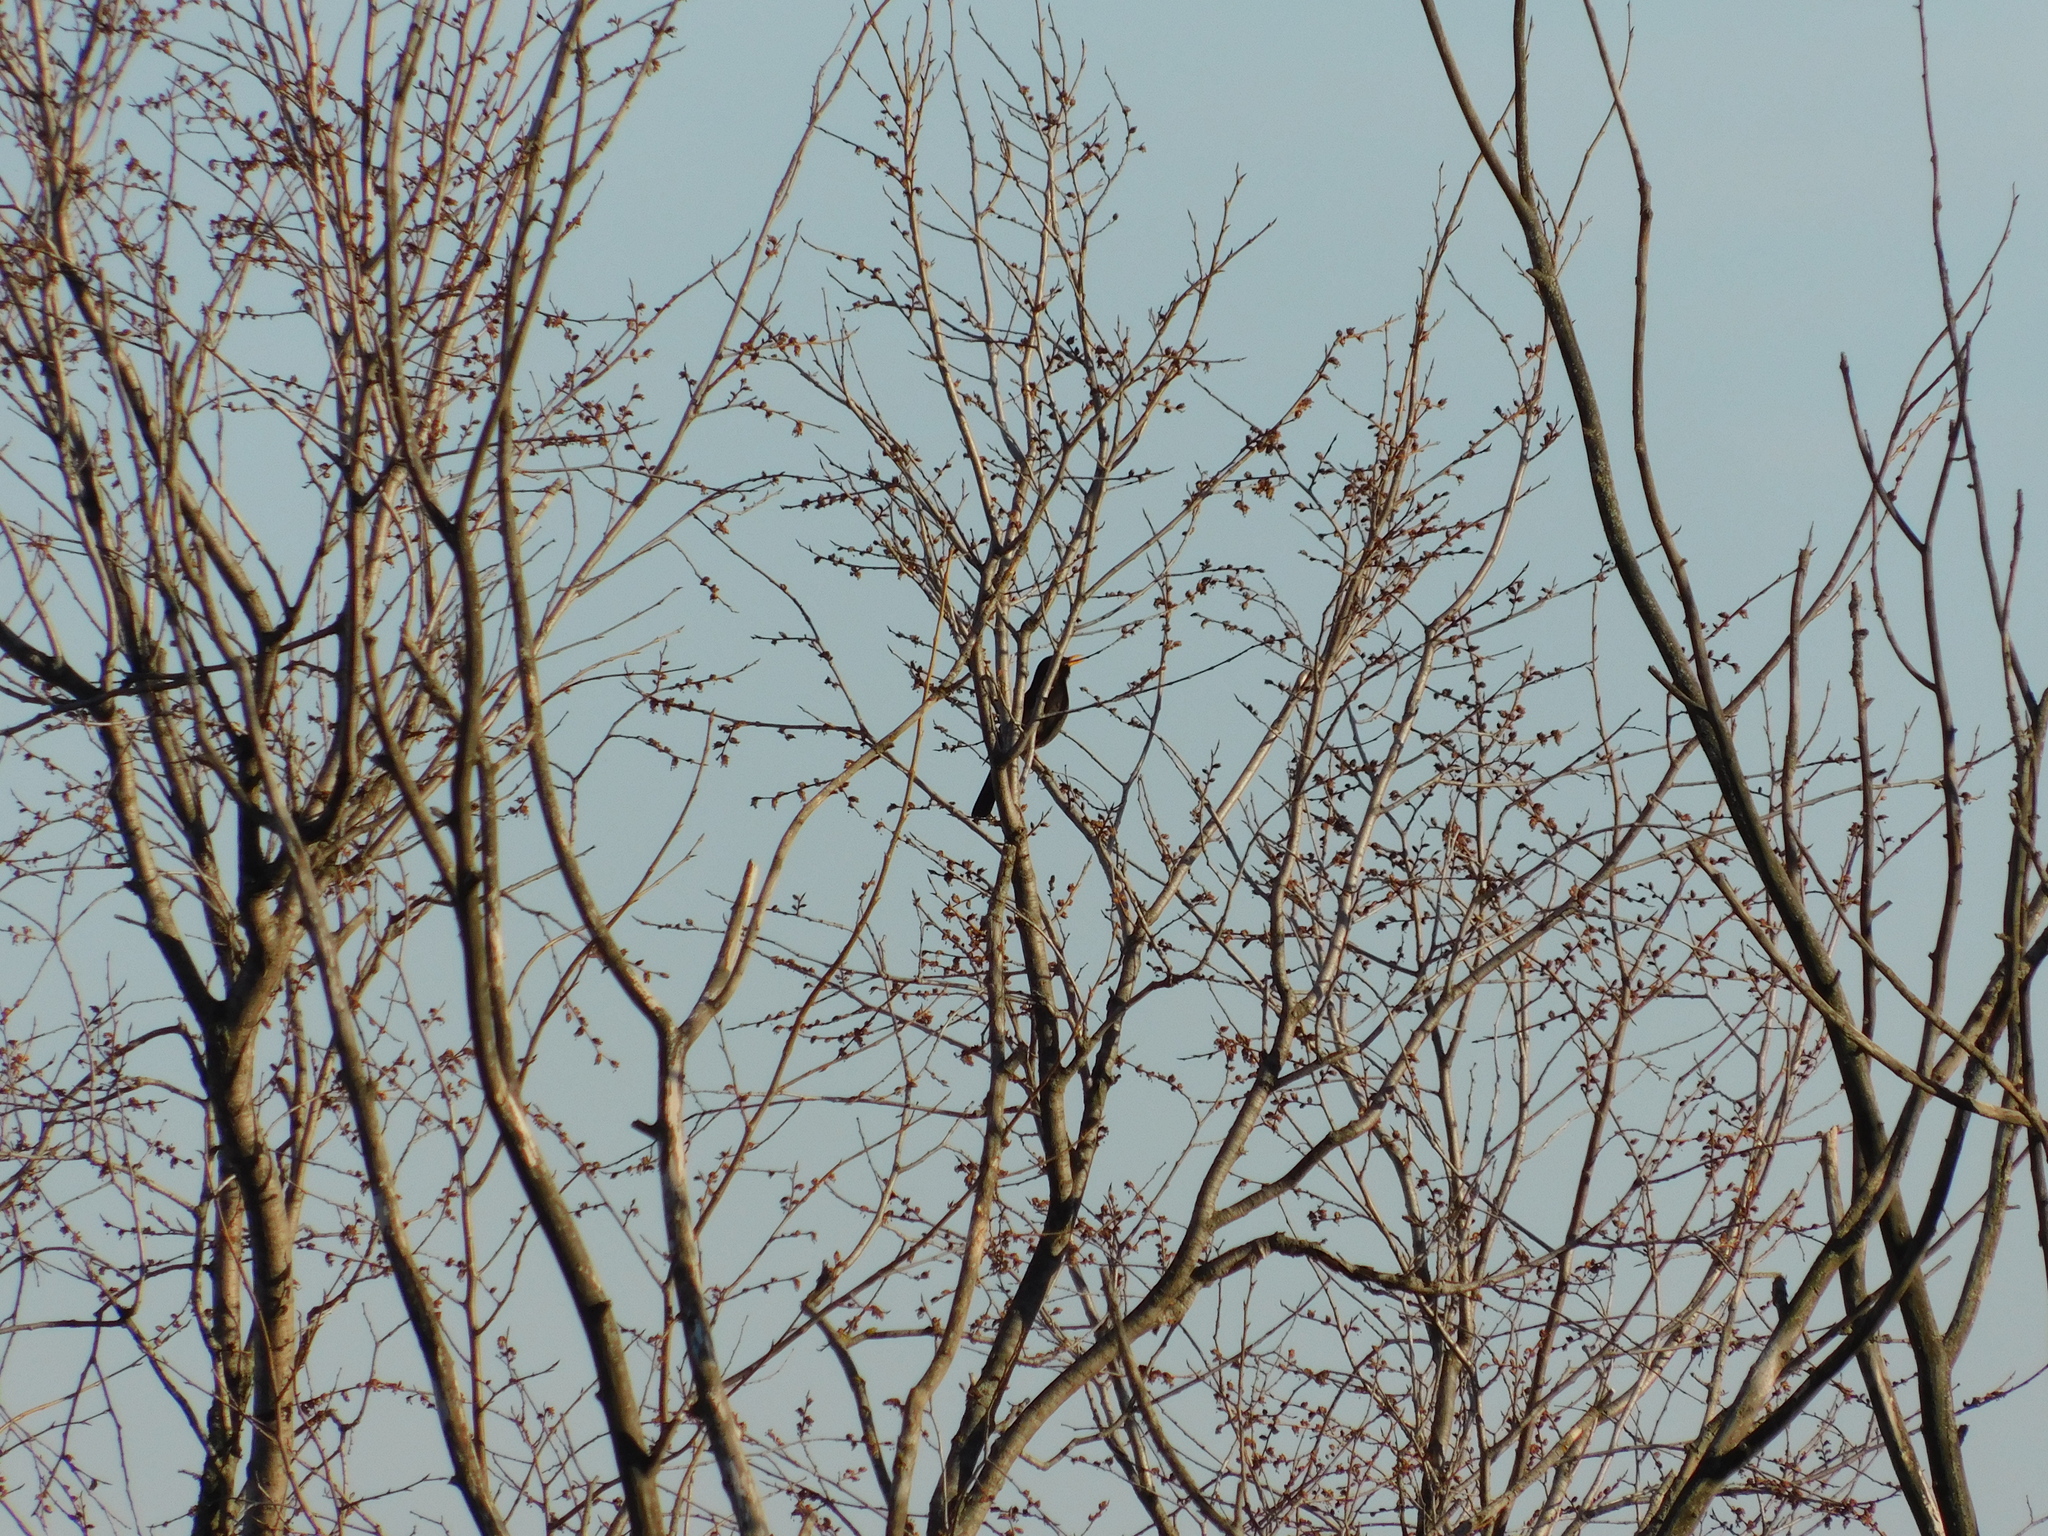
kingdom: Animalia
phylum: Chordata
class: Aves
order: Passeriformes
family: Turdidae
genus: Turdus
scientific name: Turdus merula
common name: Common blackbird
